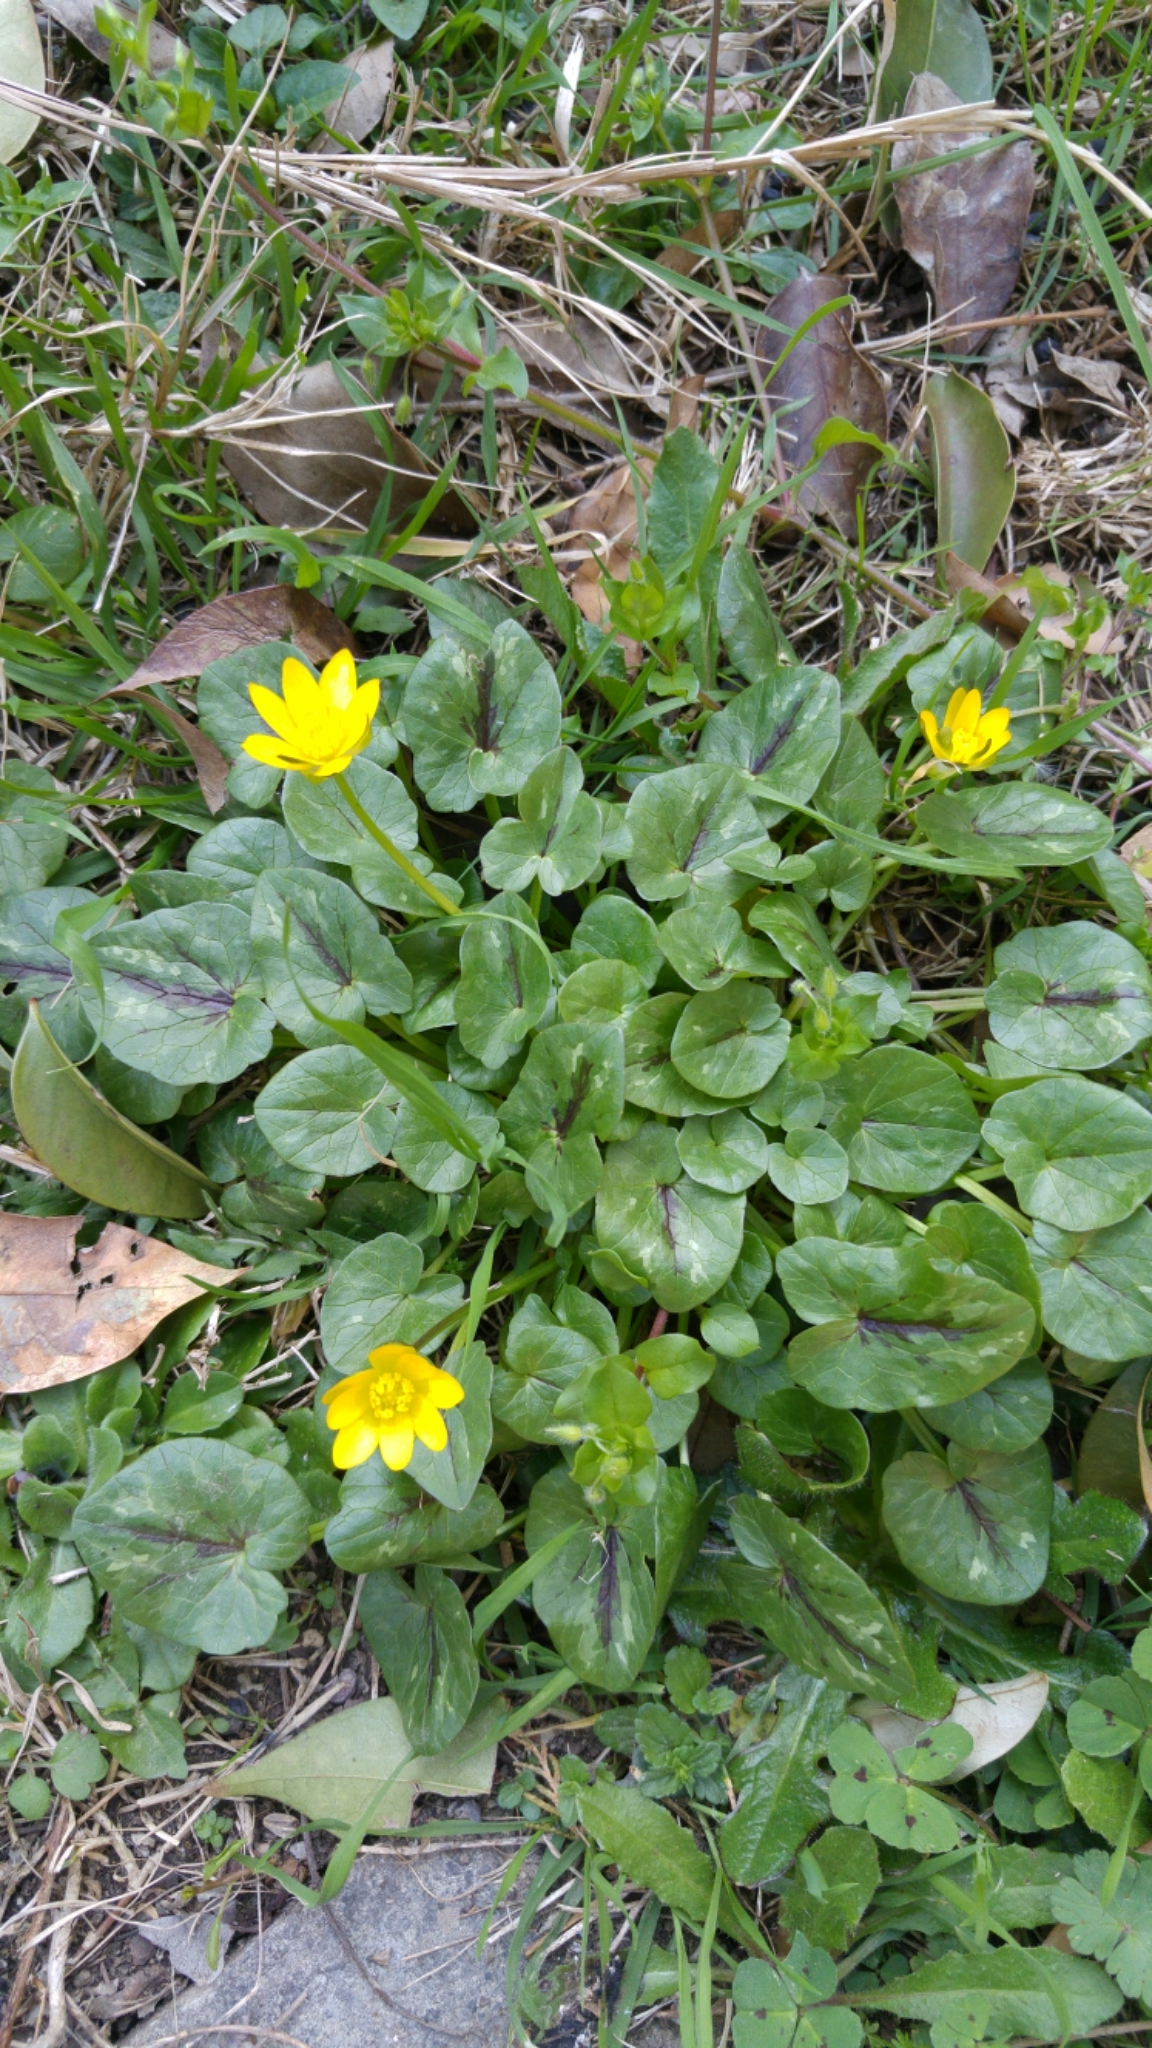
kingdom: Plantae
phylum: Tracheophyta
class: Magnoliopsida
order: Ranunculales
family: Ranunculaceae
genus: Ficaria
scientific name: Ficaria verna
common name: Lesser celandine
